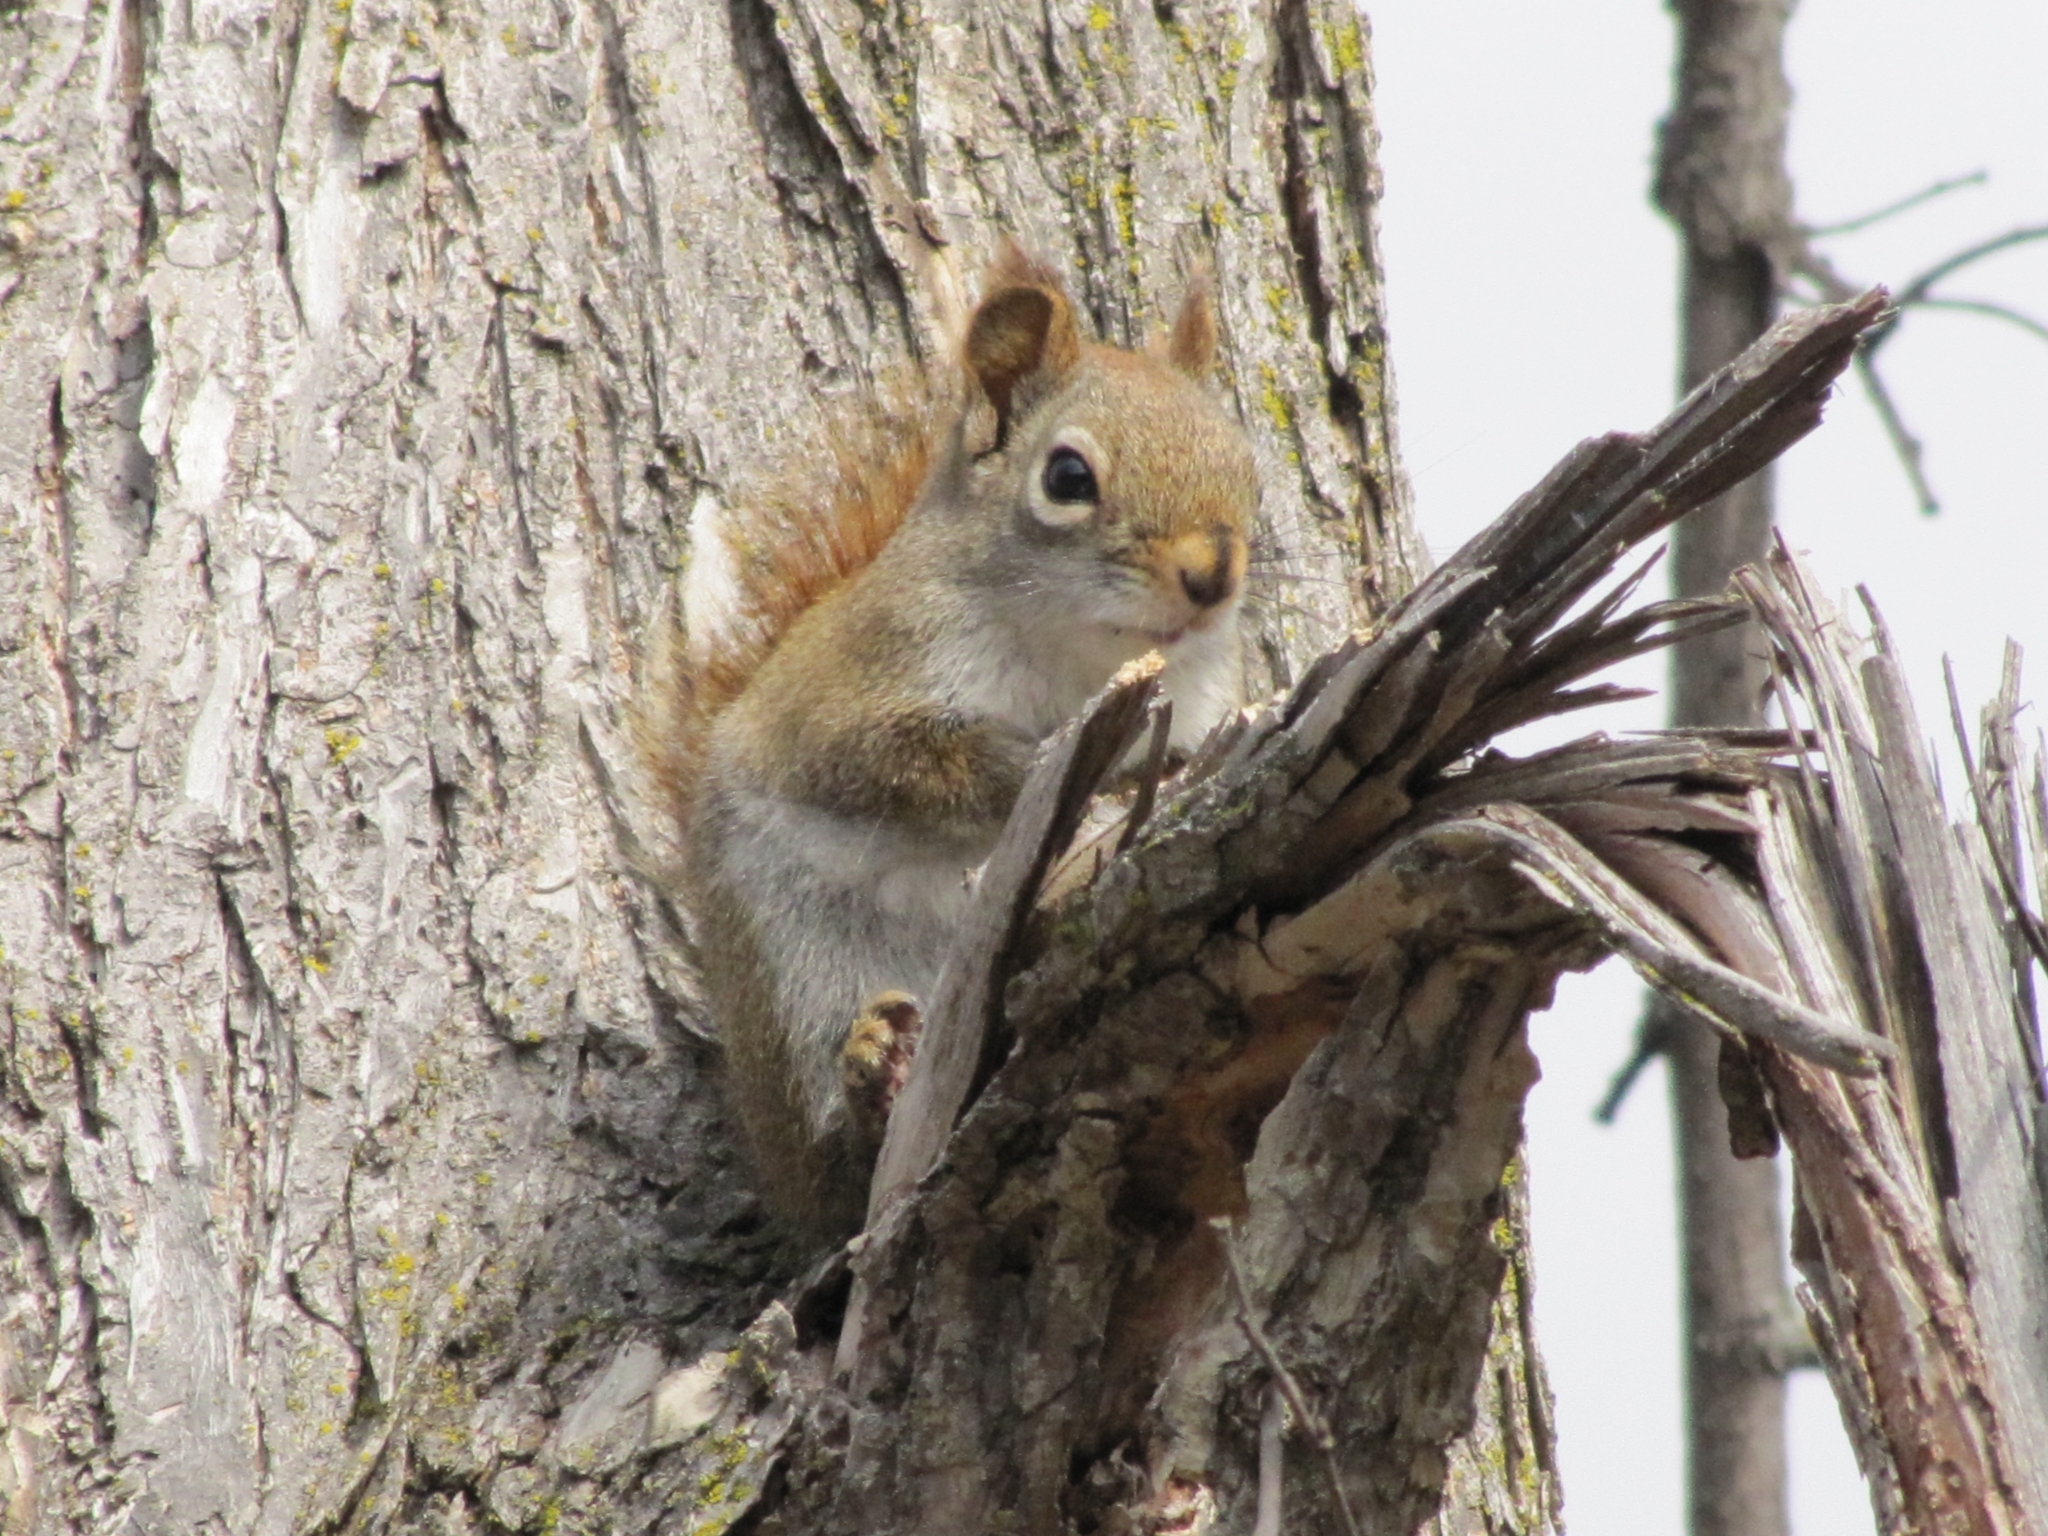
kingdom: Animalia
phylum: Chordata
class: Mammalia
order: Rodentia
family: Sciuridae
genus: Tamiasciurus
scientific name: Tamiasciurus hudsonicus
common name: Red squirrel
